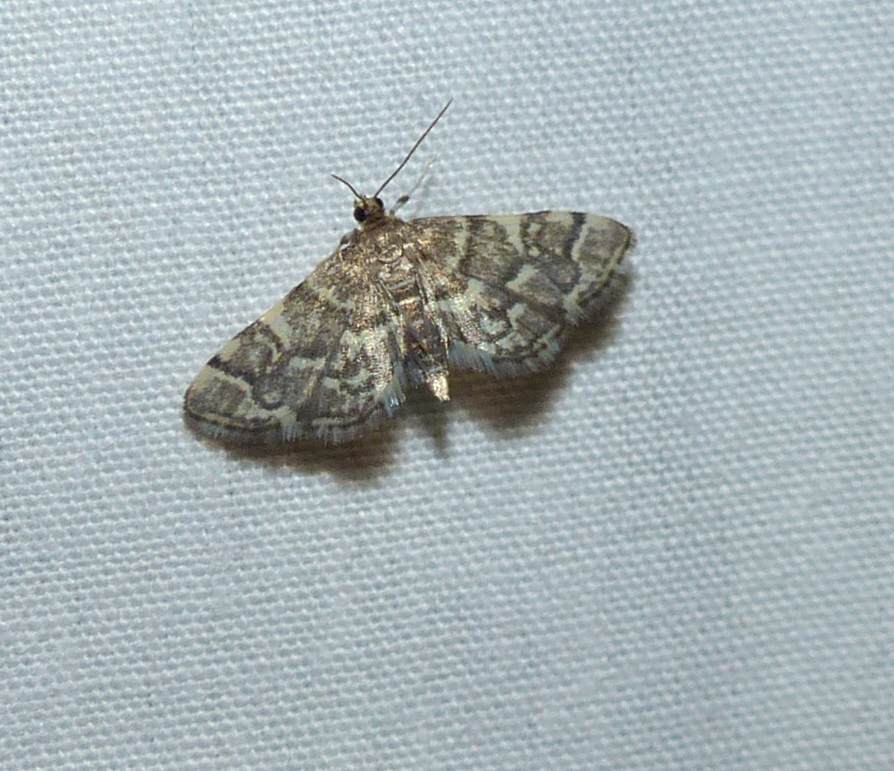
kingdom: Animalia
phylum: Arthropoda
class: Insecta
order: Lepidoptera
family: Crambidae
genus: Anageshna
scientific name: Anageshna primordialis
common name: Yellow-spotted webworm moth
